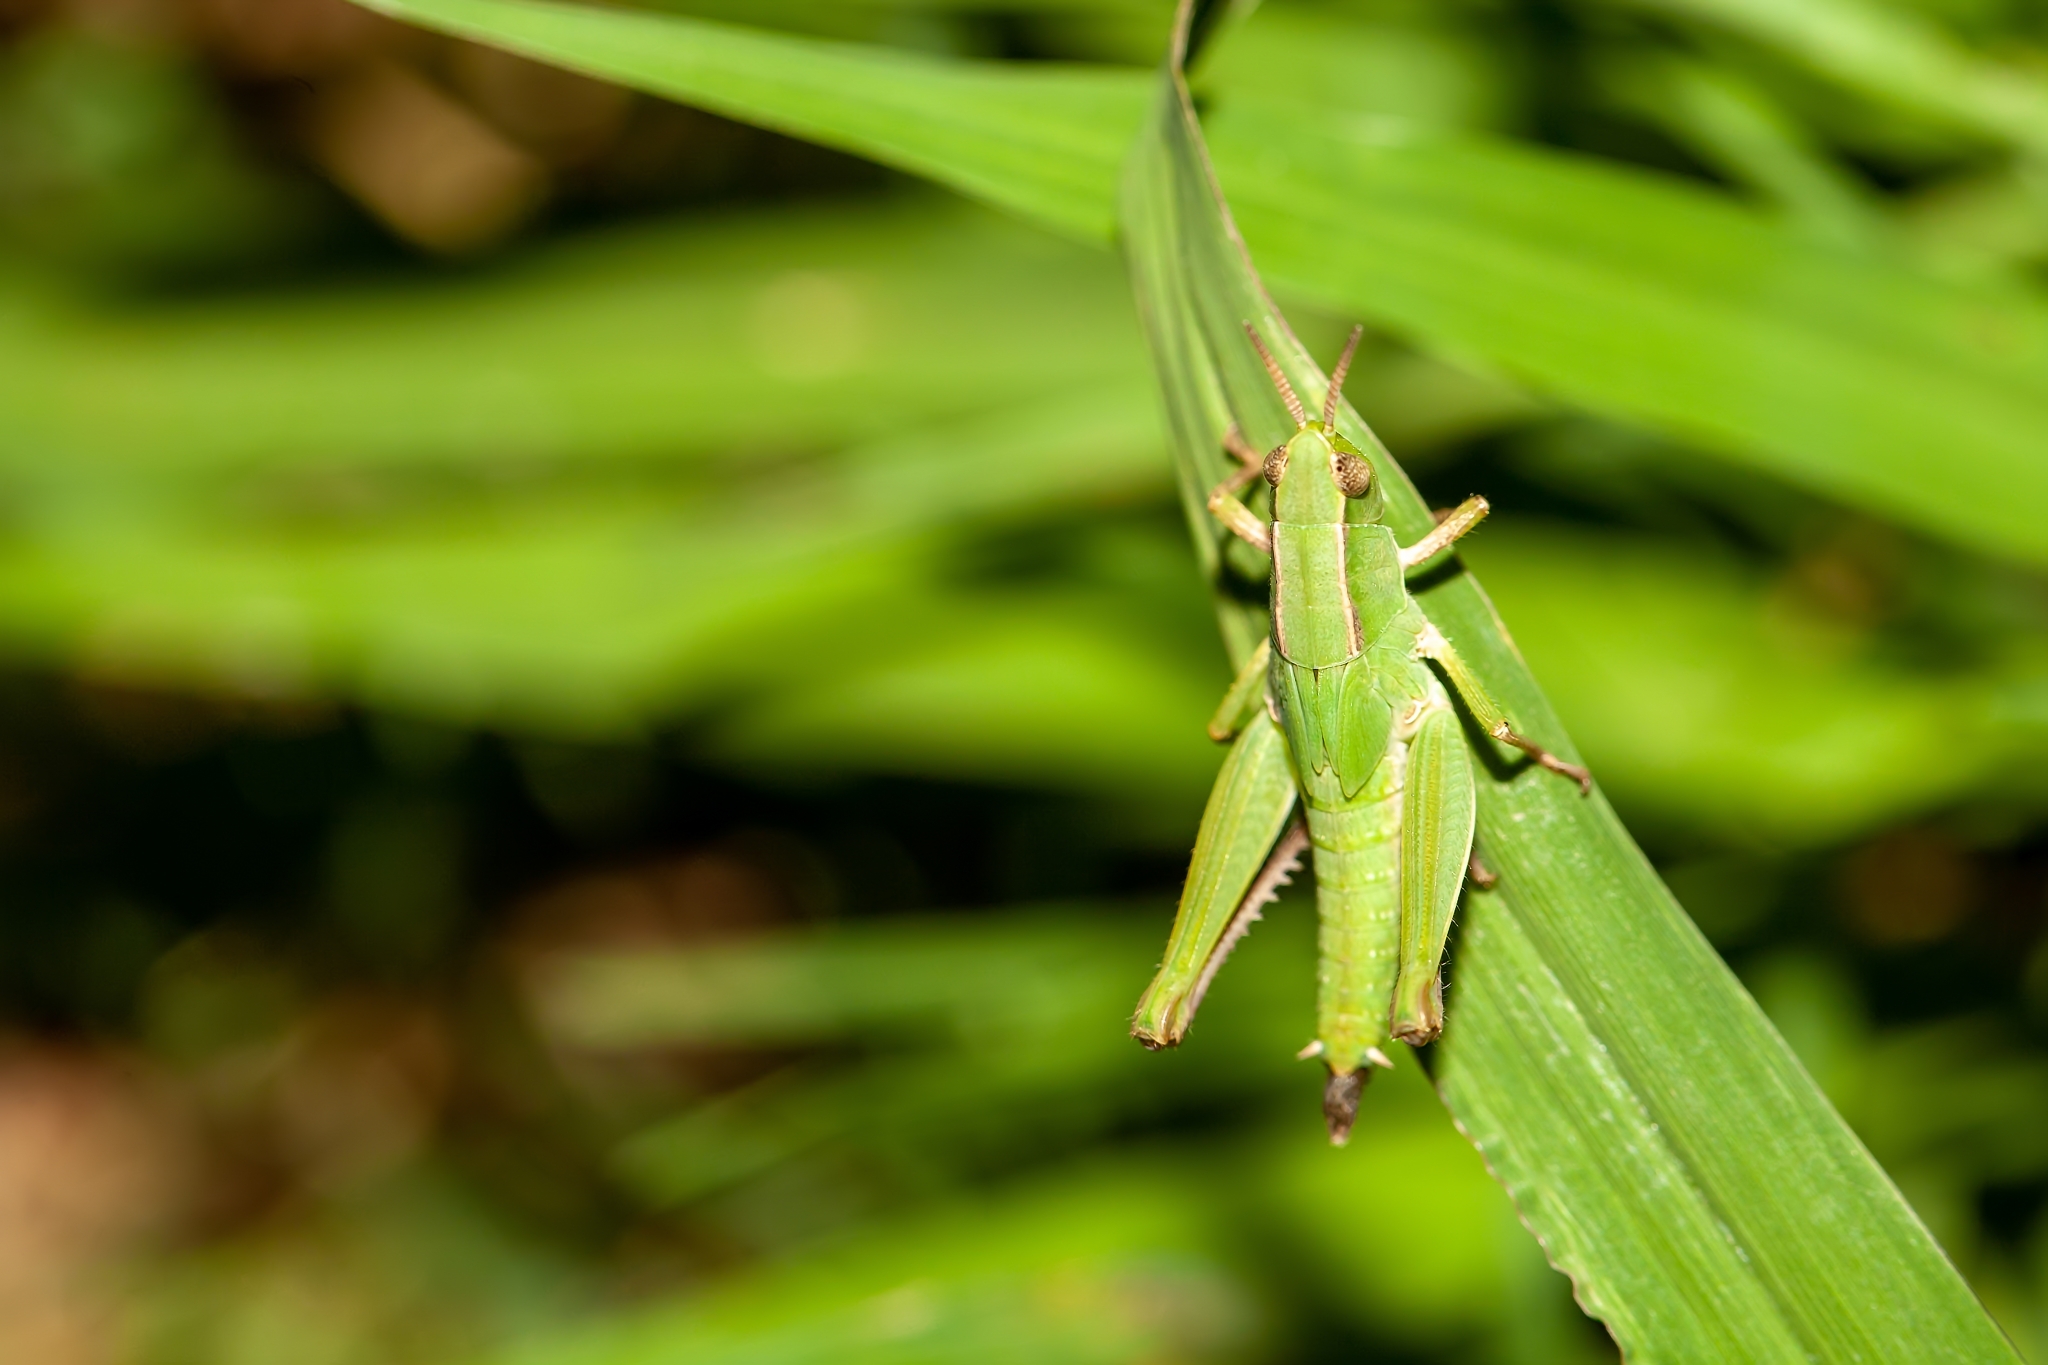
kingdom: Animalia
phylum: Arthropoda
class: Insecta
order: Orthoptera
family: Acrididae
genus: Dichromorpha
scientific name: Dichromorpha viridis
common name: Short-winged green grasshopper
